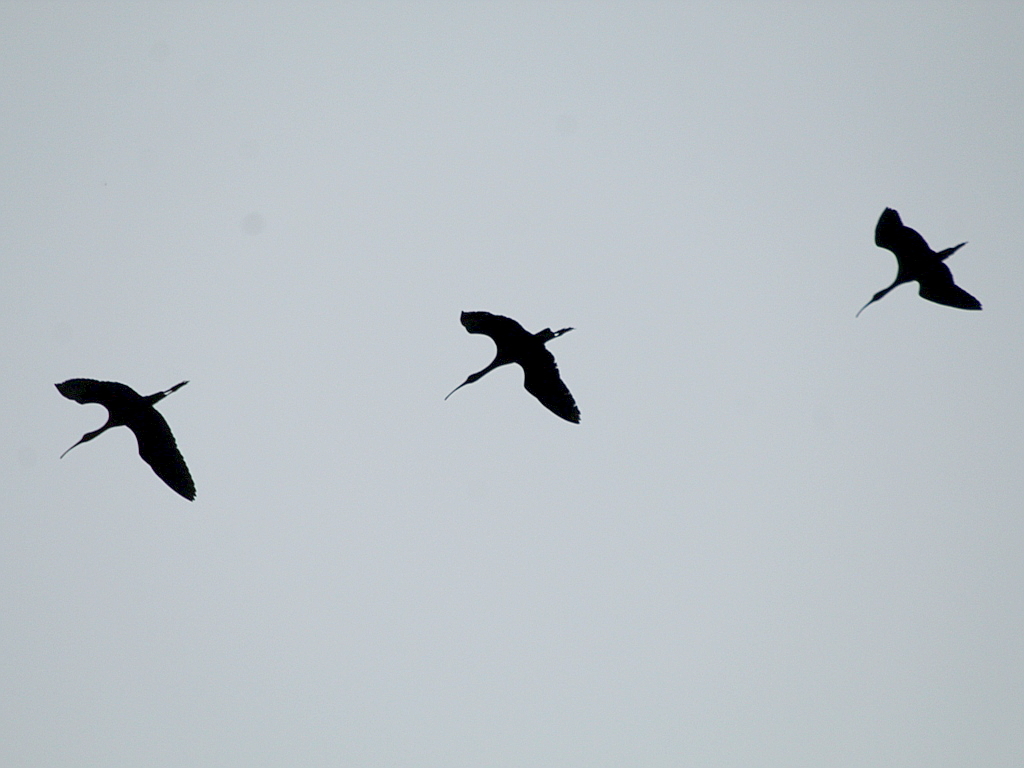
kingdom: Animalia
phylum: Chordata
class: Aves
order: Pelecaniformes
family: Threskiornithidae
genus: Plegadis
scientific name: Plegadis falcinellus
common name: Glossy ibis
